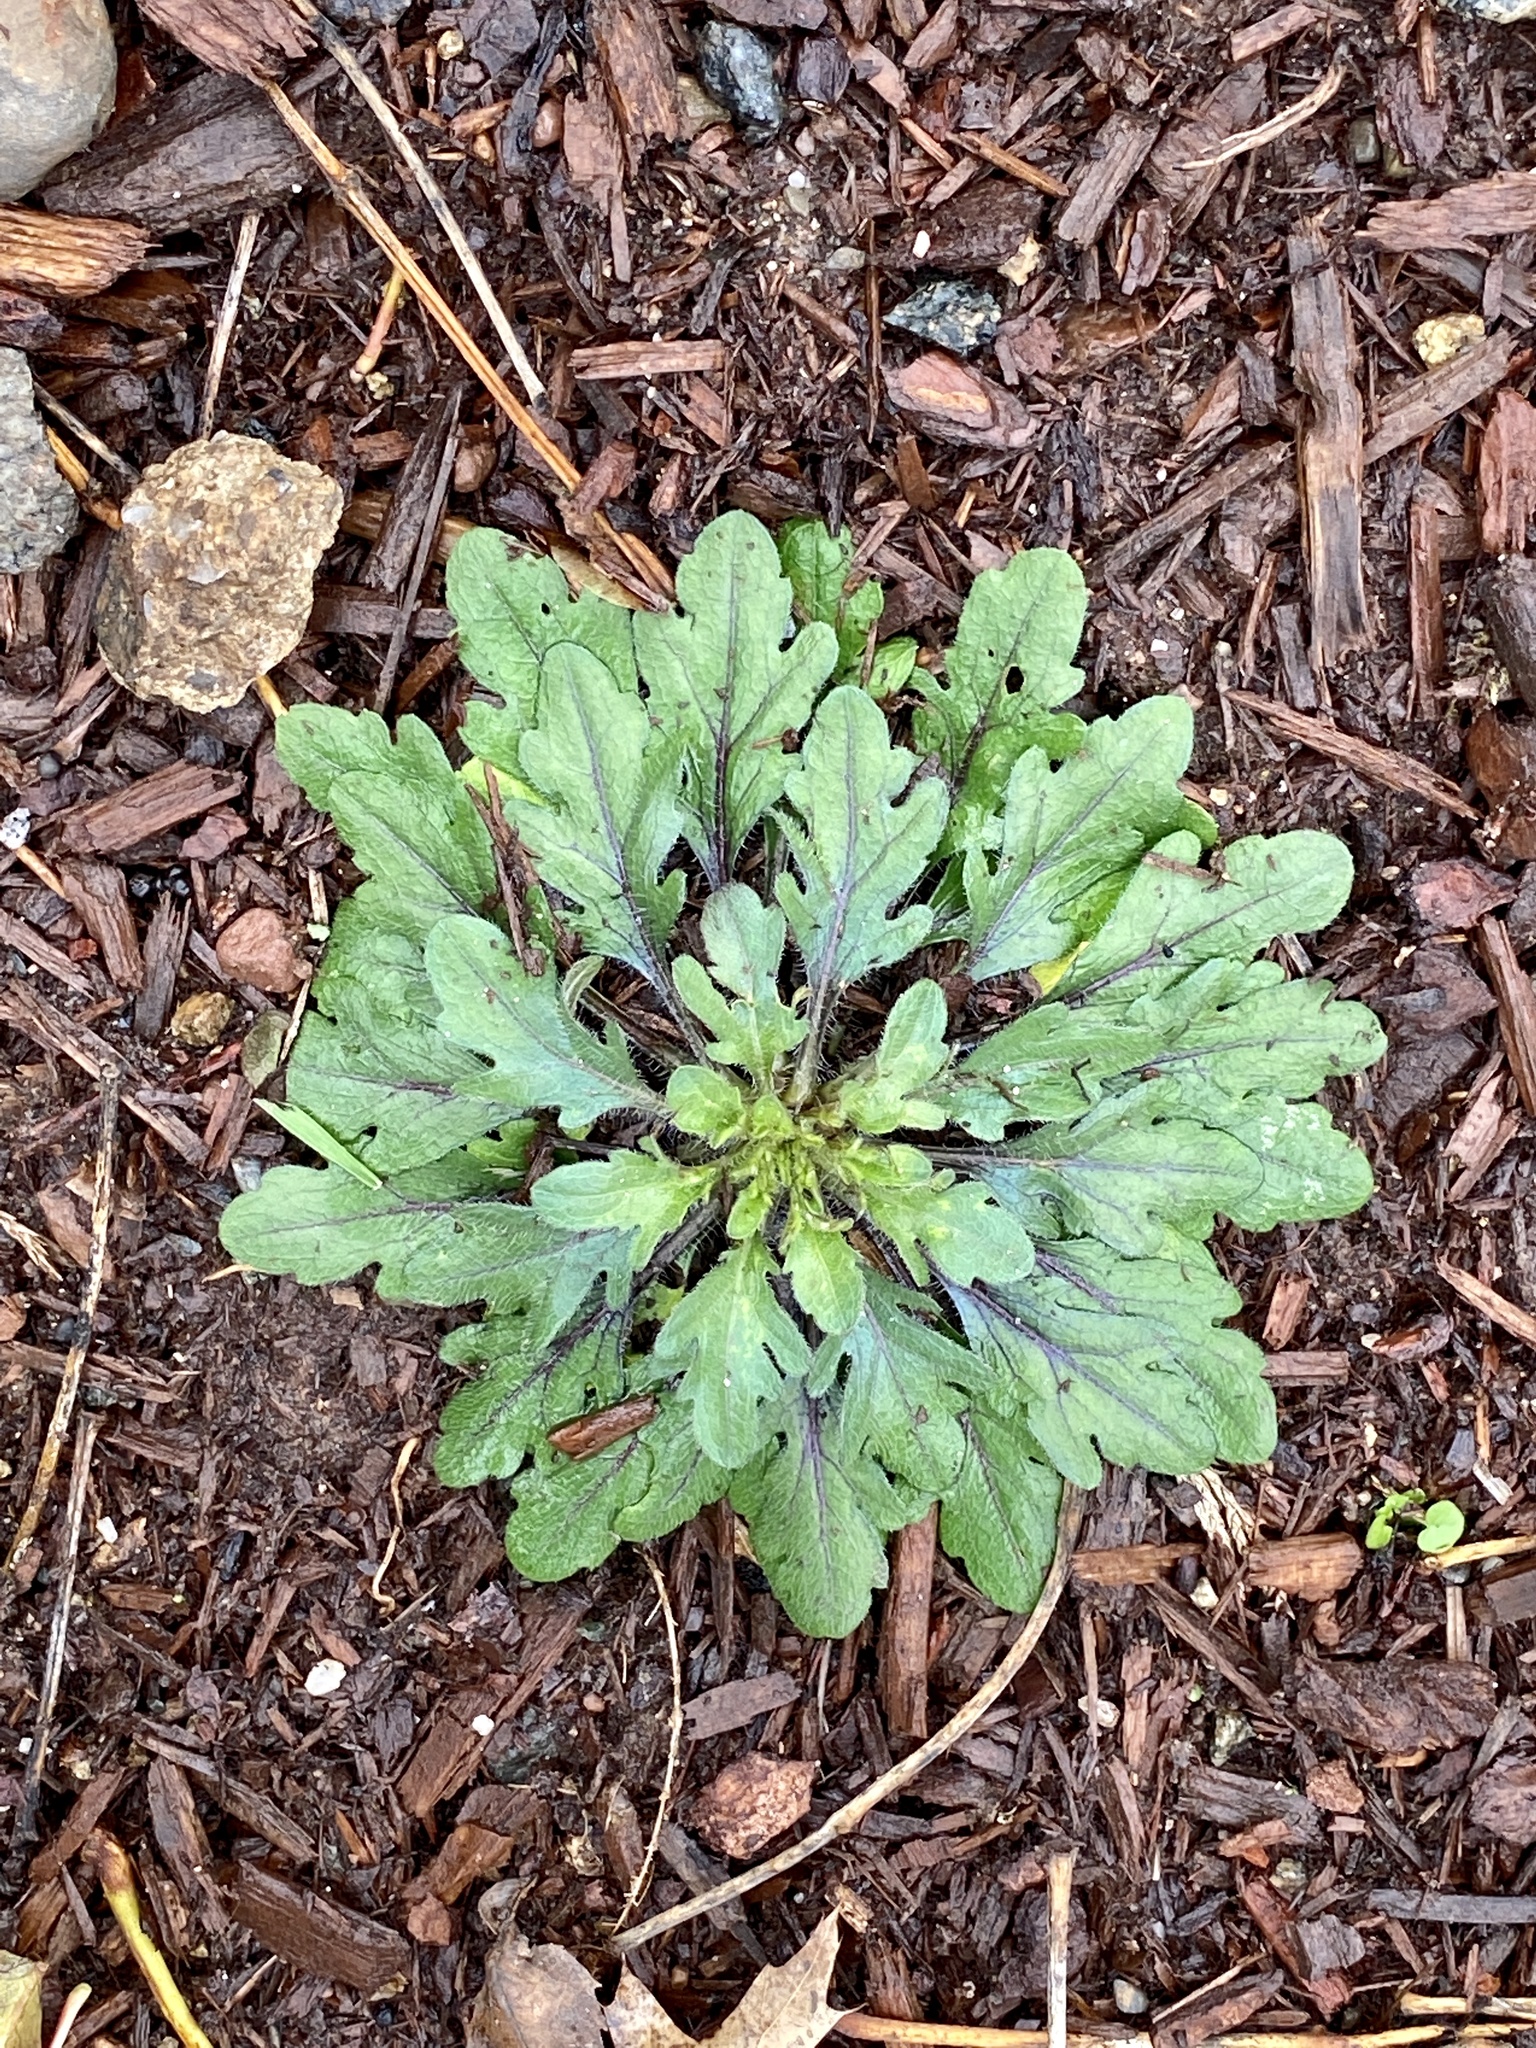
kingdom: Plantae
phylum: Tracheophyta
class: Magnoliopsida
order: Asterales
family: Asteraceae
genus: Erigeron
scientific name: Erigeron canadensis
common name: Canadian fleabane
